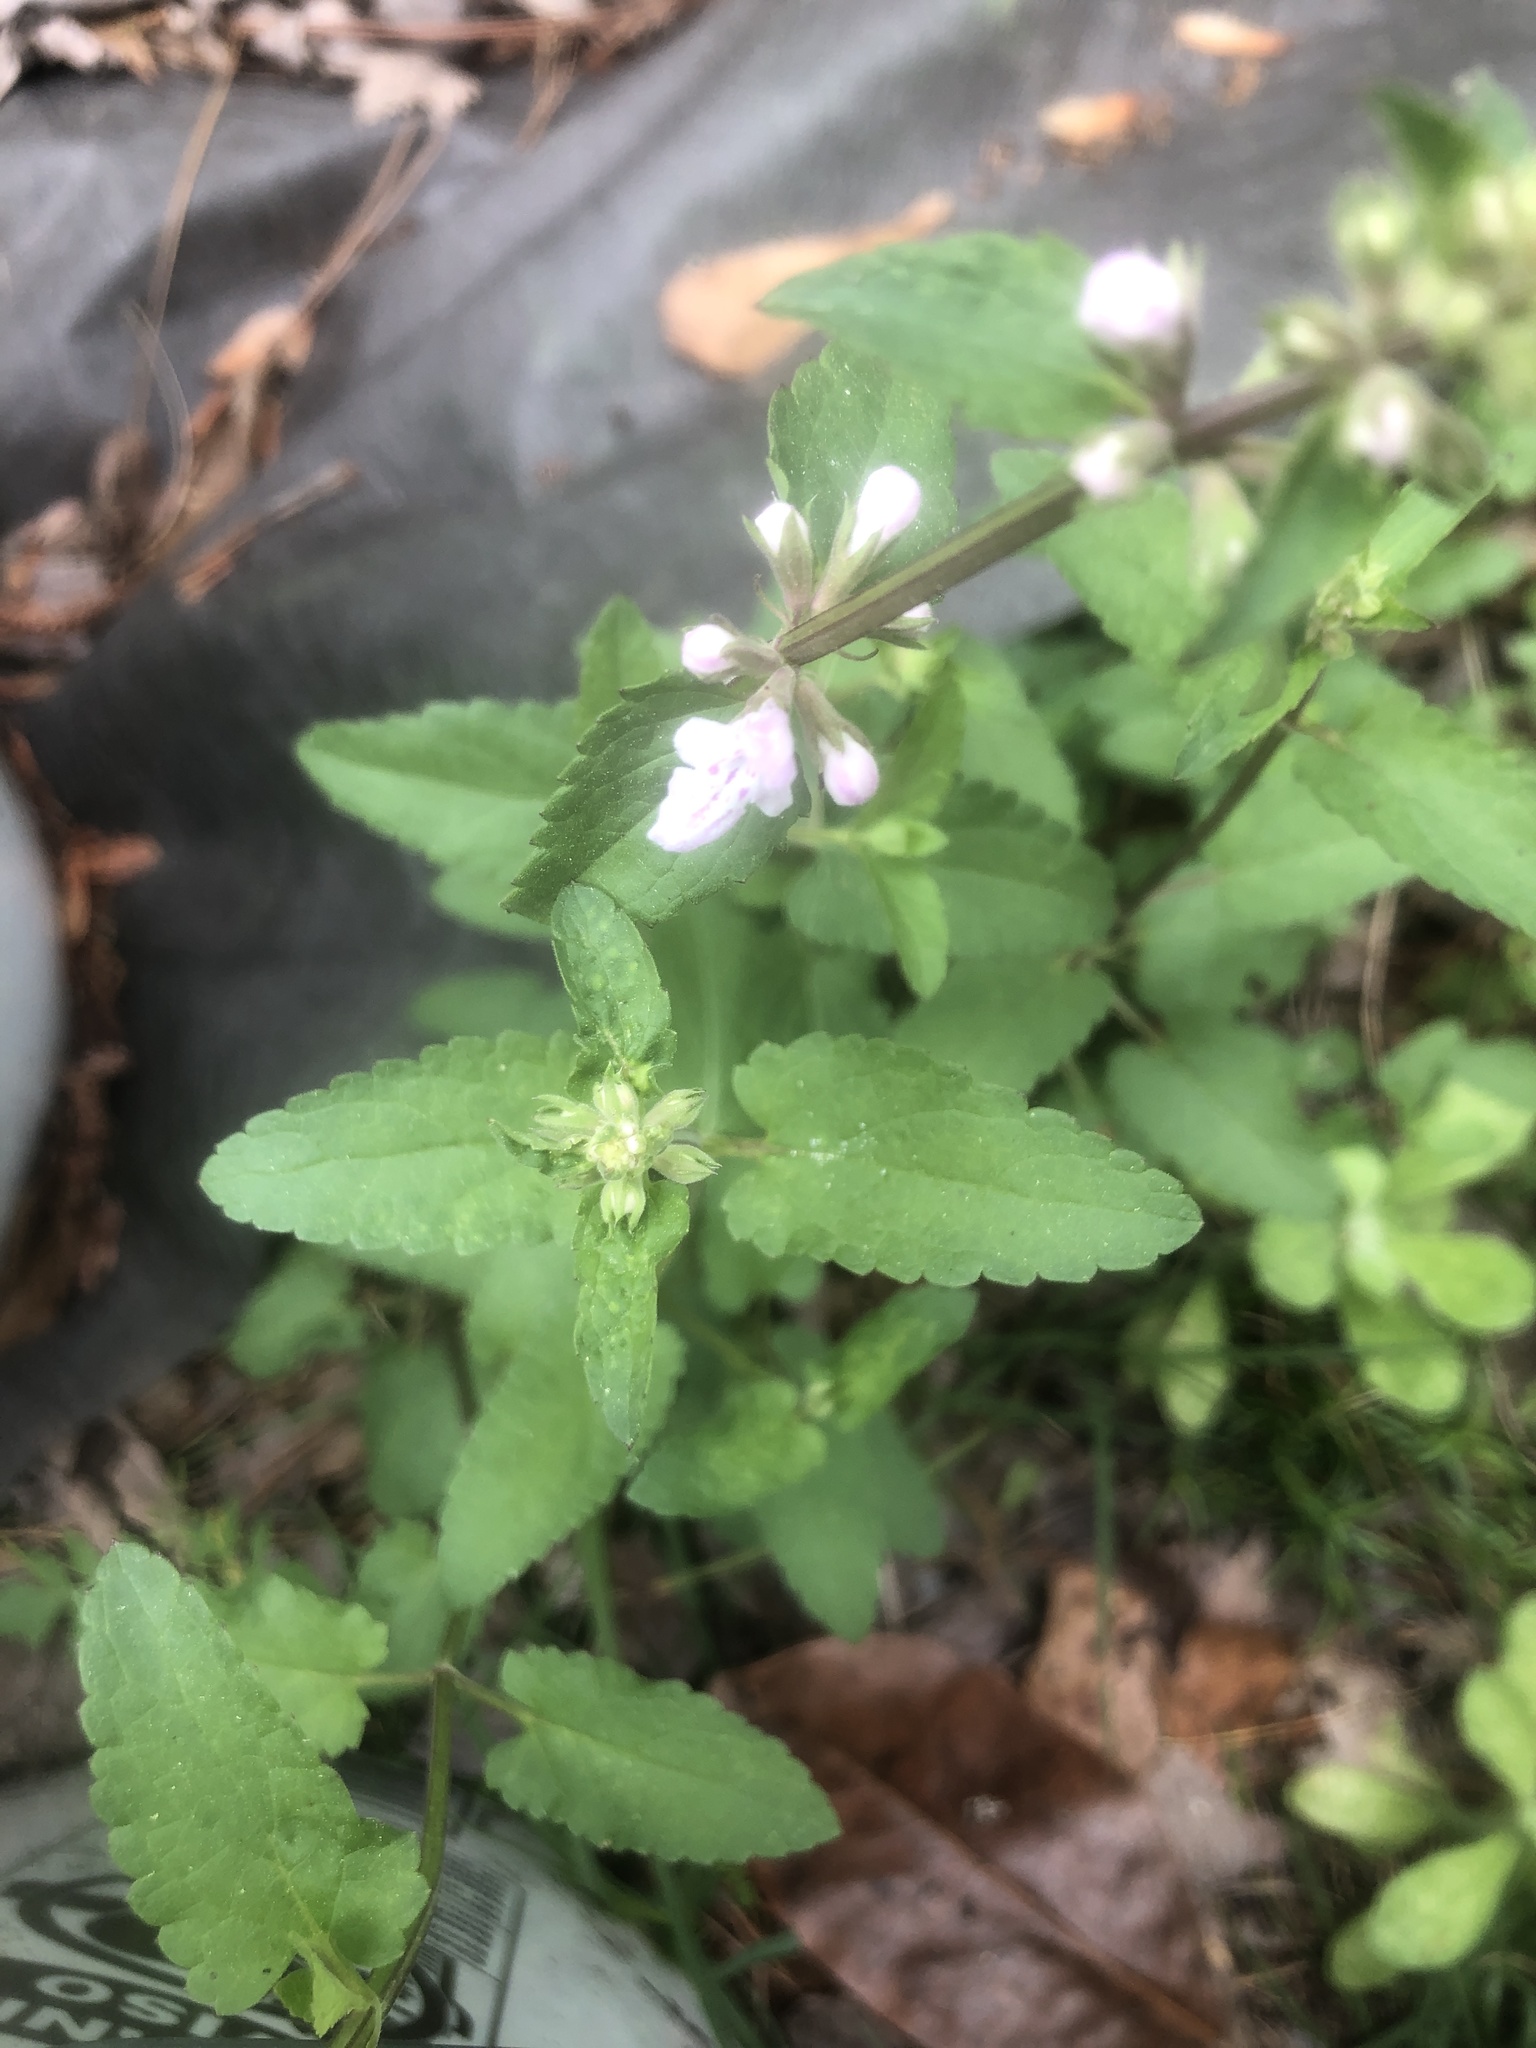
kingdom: Plantae
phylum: Tracheophyta
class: Magnoliopsida
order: Lamiales
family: Lamiaceae
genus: Stachys
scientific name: Stachys floridana
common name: Florida betony
